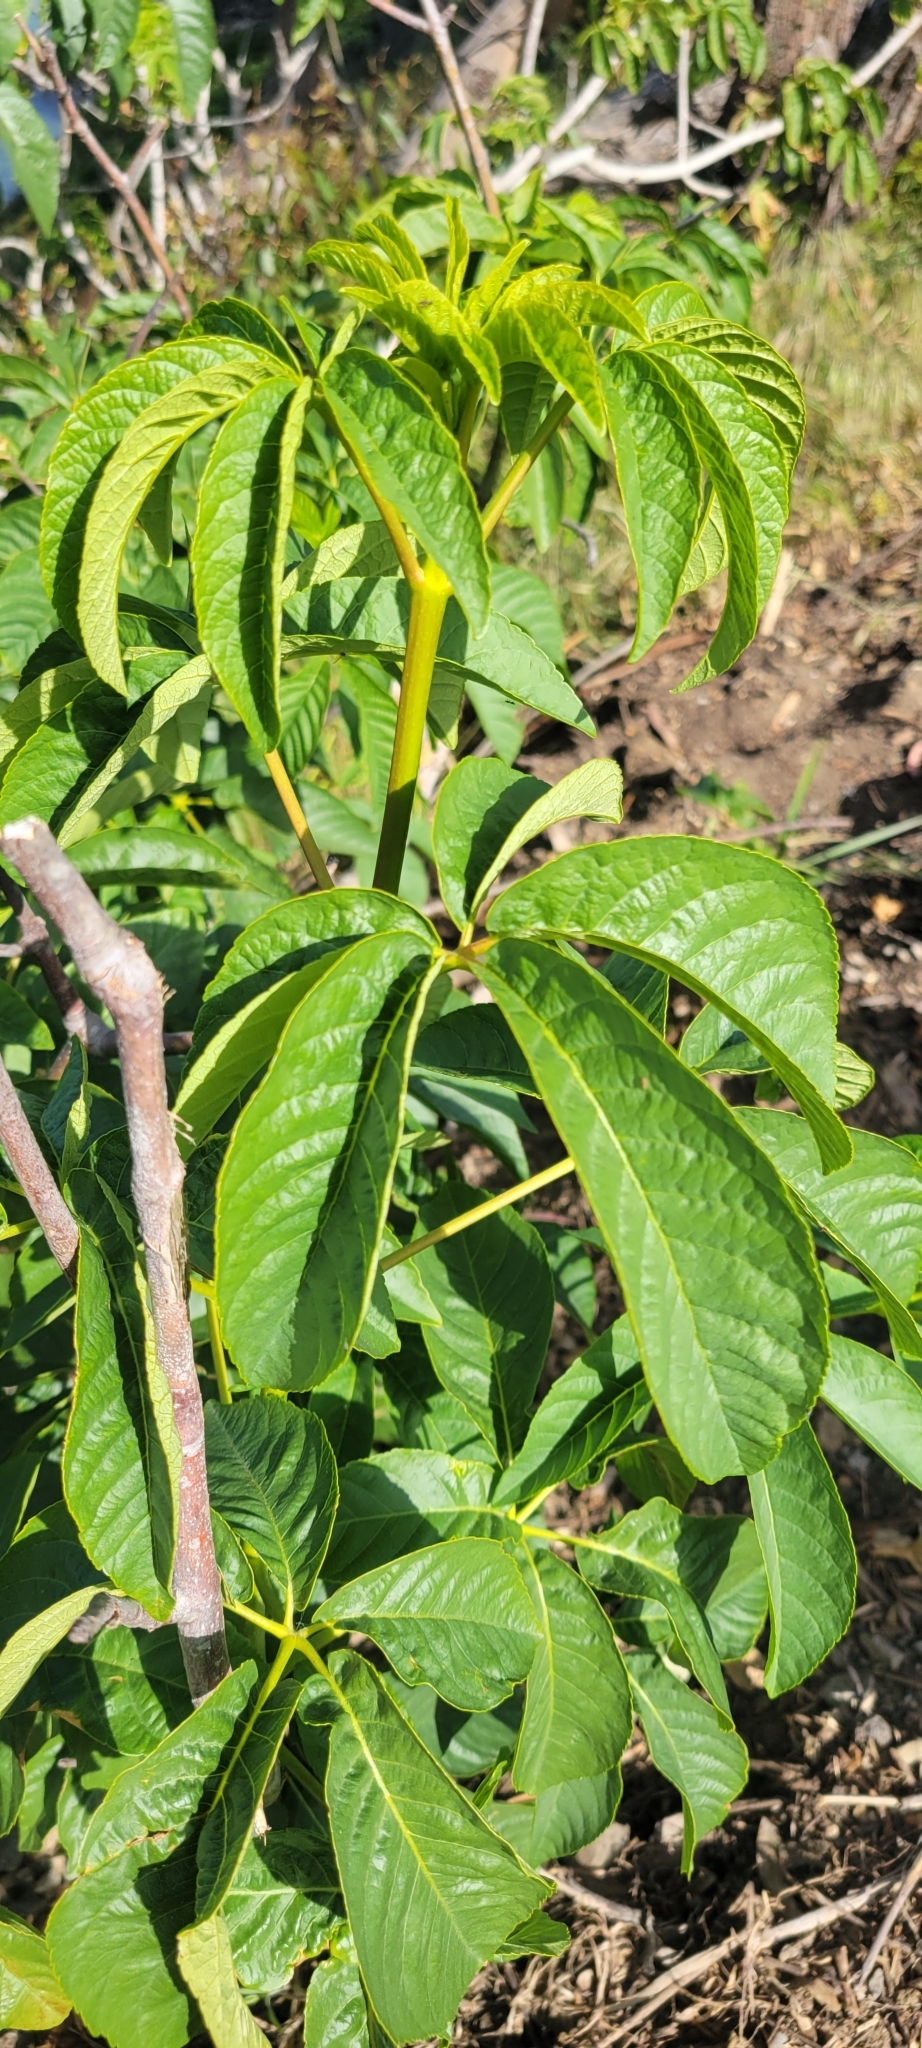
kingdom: Plantae
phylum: Tracheophyta
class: Magnoliopsida
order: Sapindales
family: Sapindaceae
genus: Aesculus
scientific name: Aesculus californica
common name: California buckeye
